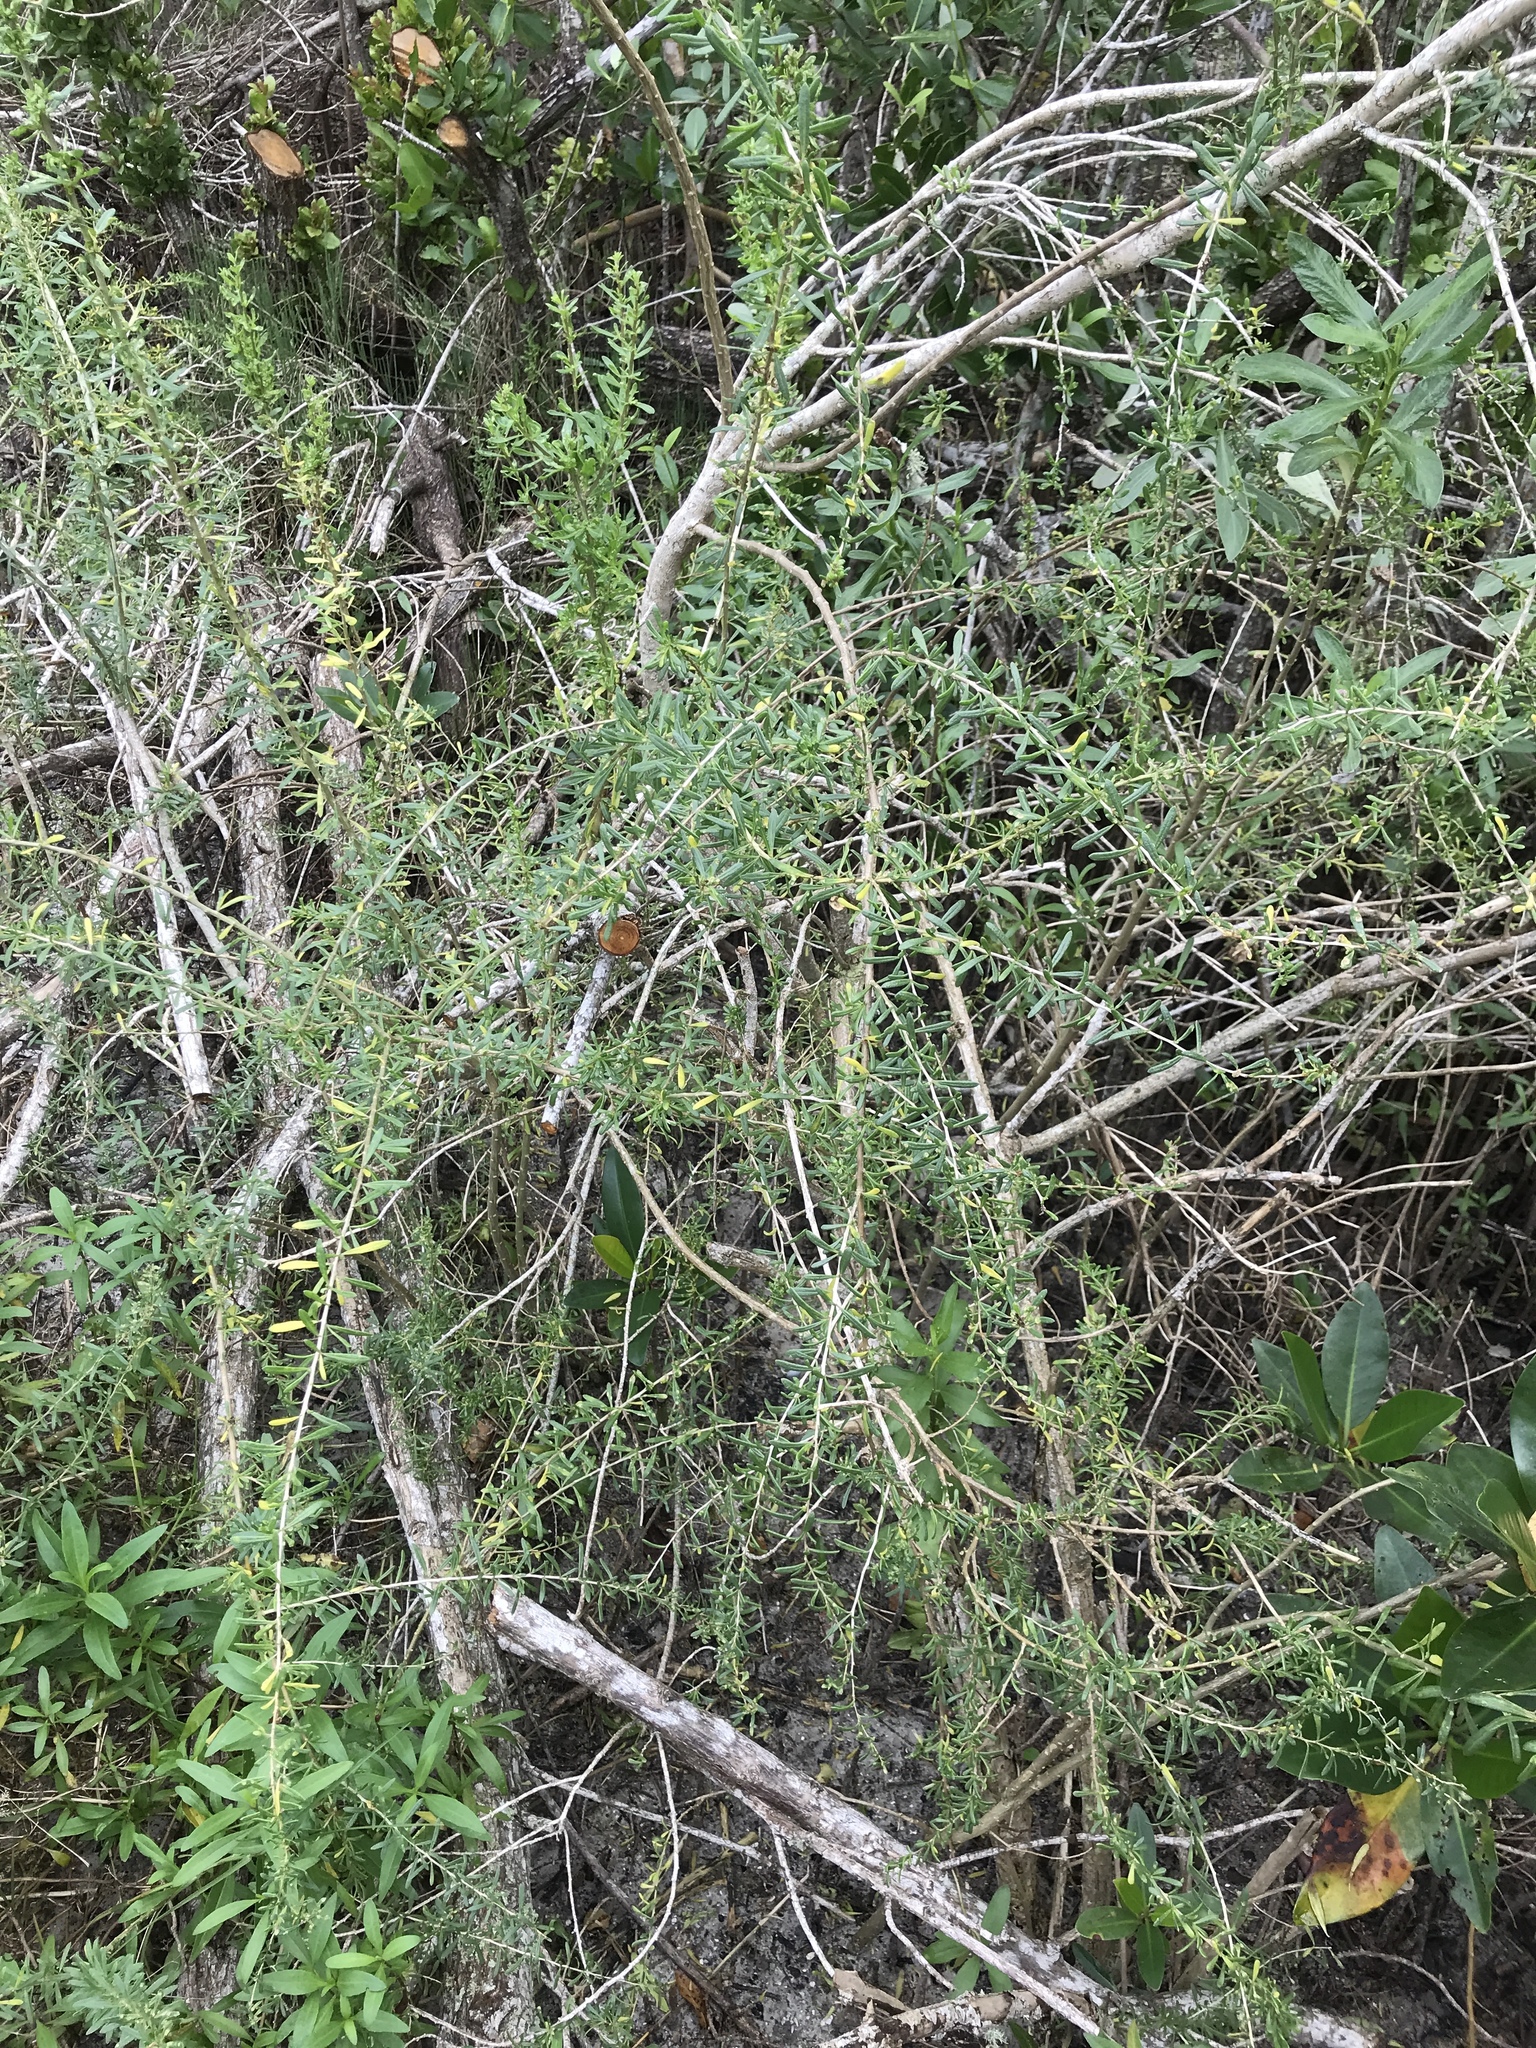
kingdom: Plantae
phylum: Tracheophyta
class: Magnoliopsida
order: Solanales
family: Solanaceae
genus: Lycium
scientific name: Lycium carolinianum
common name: Christmasberry
